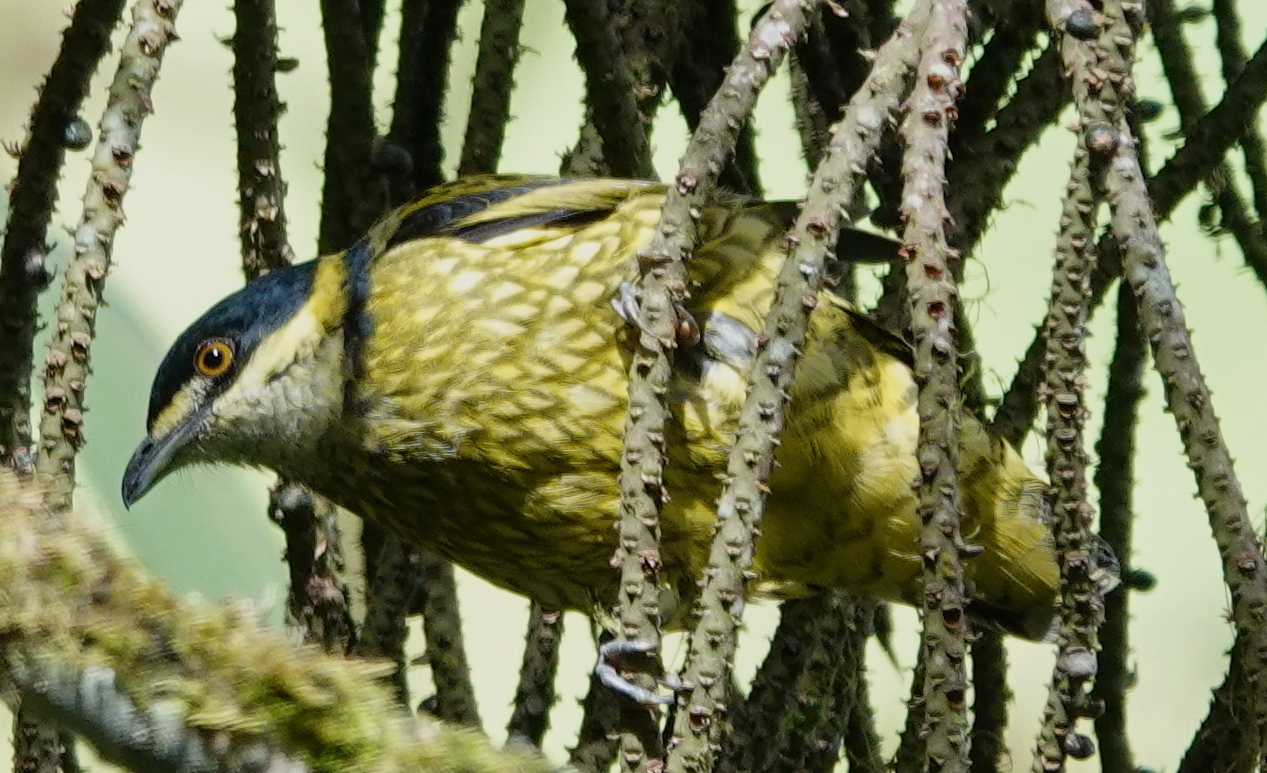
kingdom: Animalia
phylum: Chordata
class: Aves
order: Passeriformes
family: Cotingidae
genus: Ampelioides
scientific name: Ampelioides tschudii
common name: Scaled fruiteater
